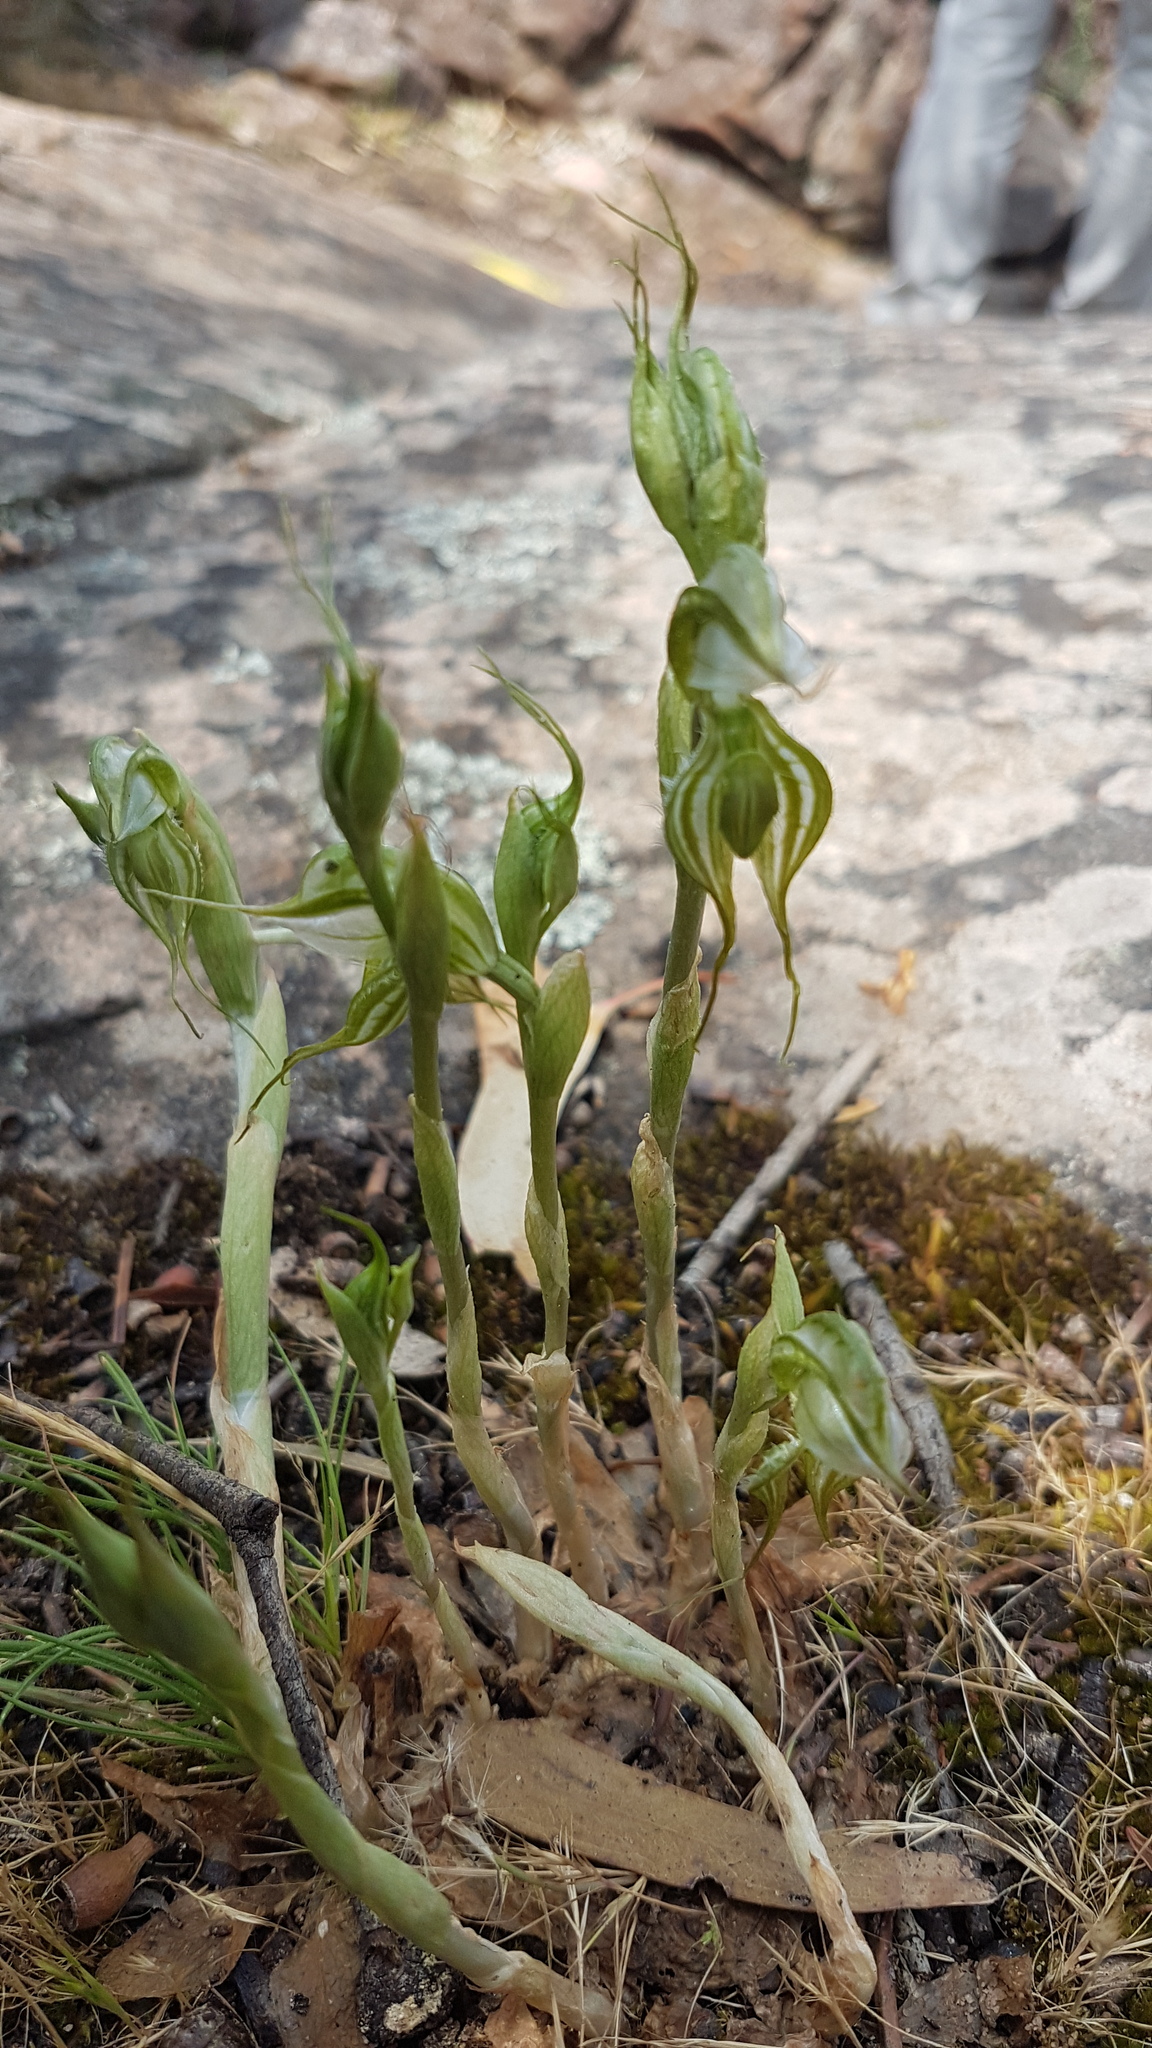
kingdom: Plantae
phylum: Tracheophyta
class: Liliopsida
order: Asparagales
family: Orchidaceae
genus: Pterostylis
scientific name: Pterostylis planulata
